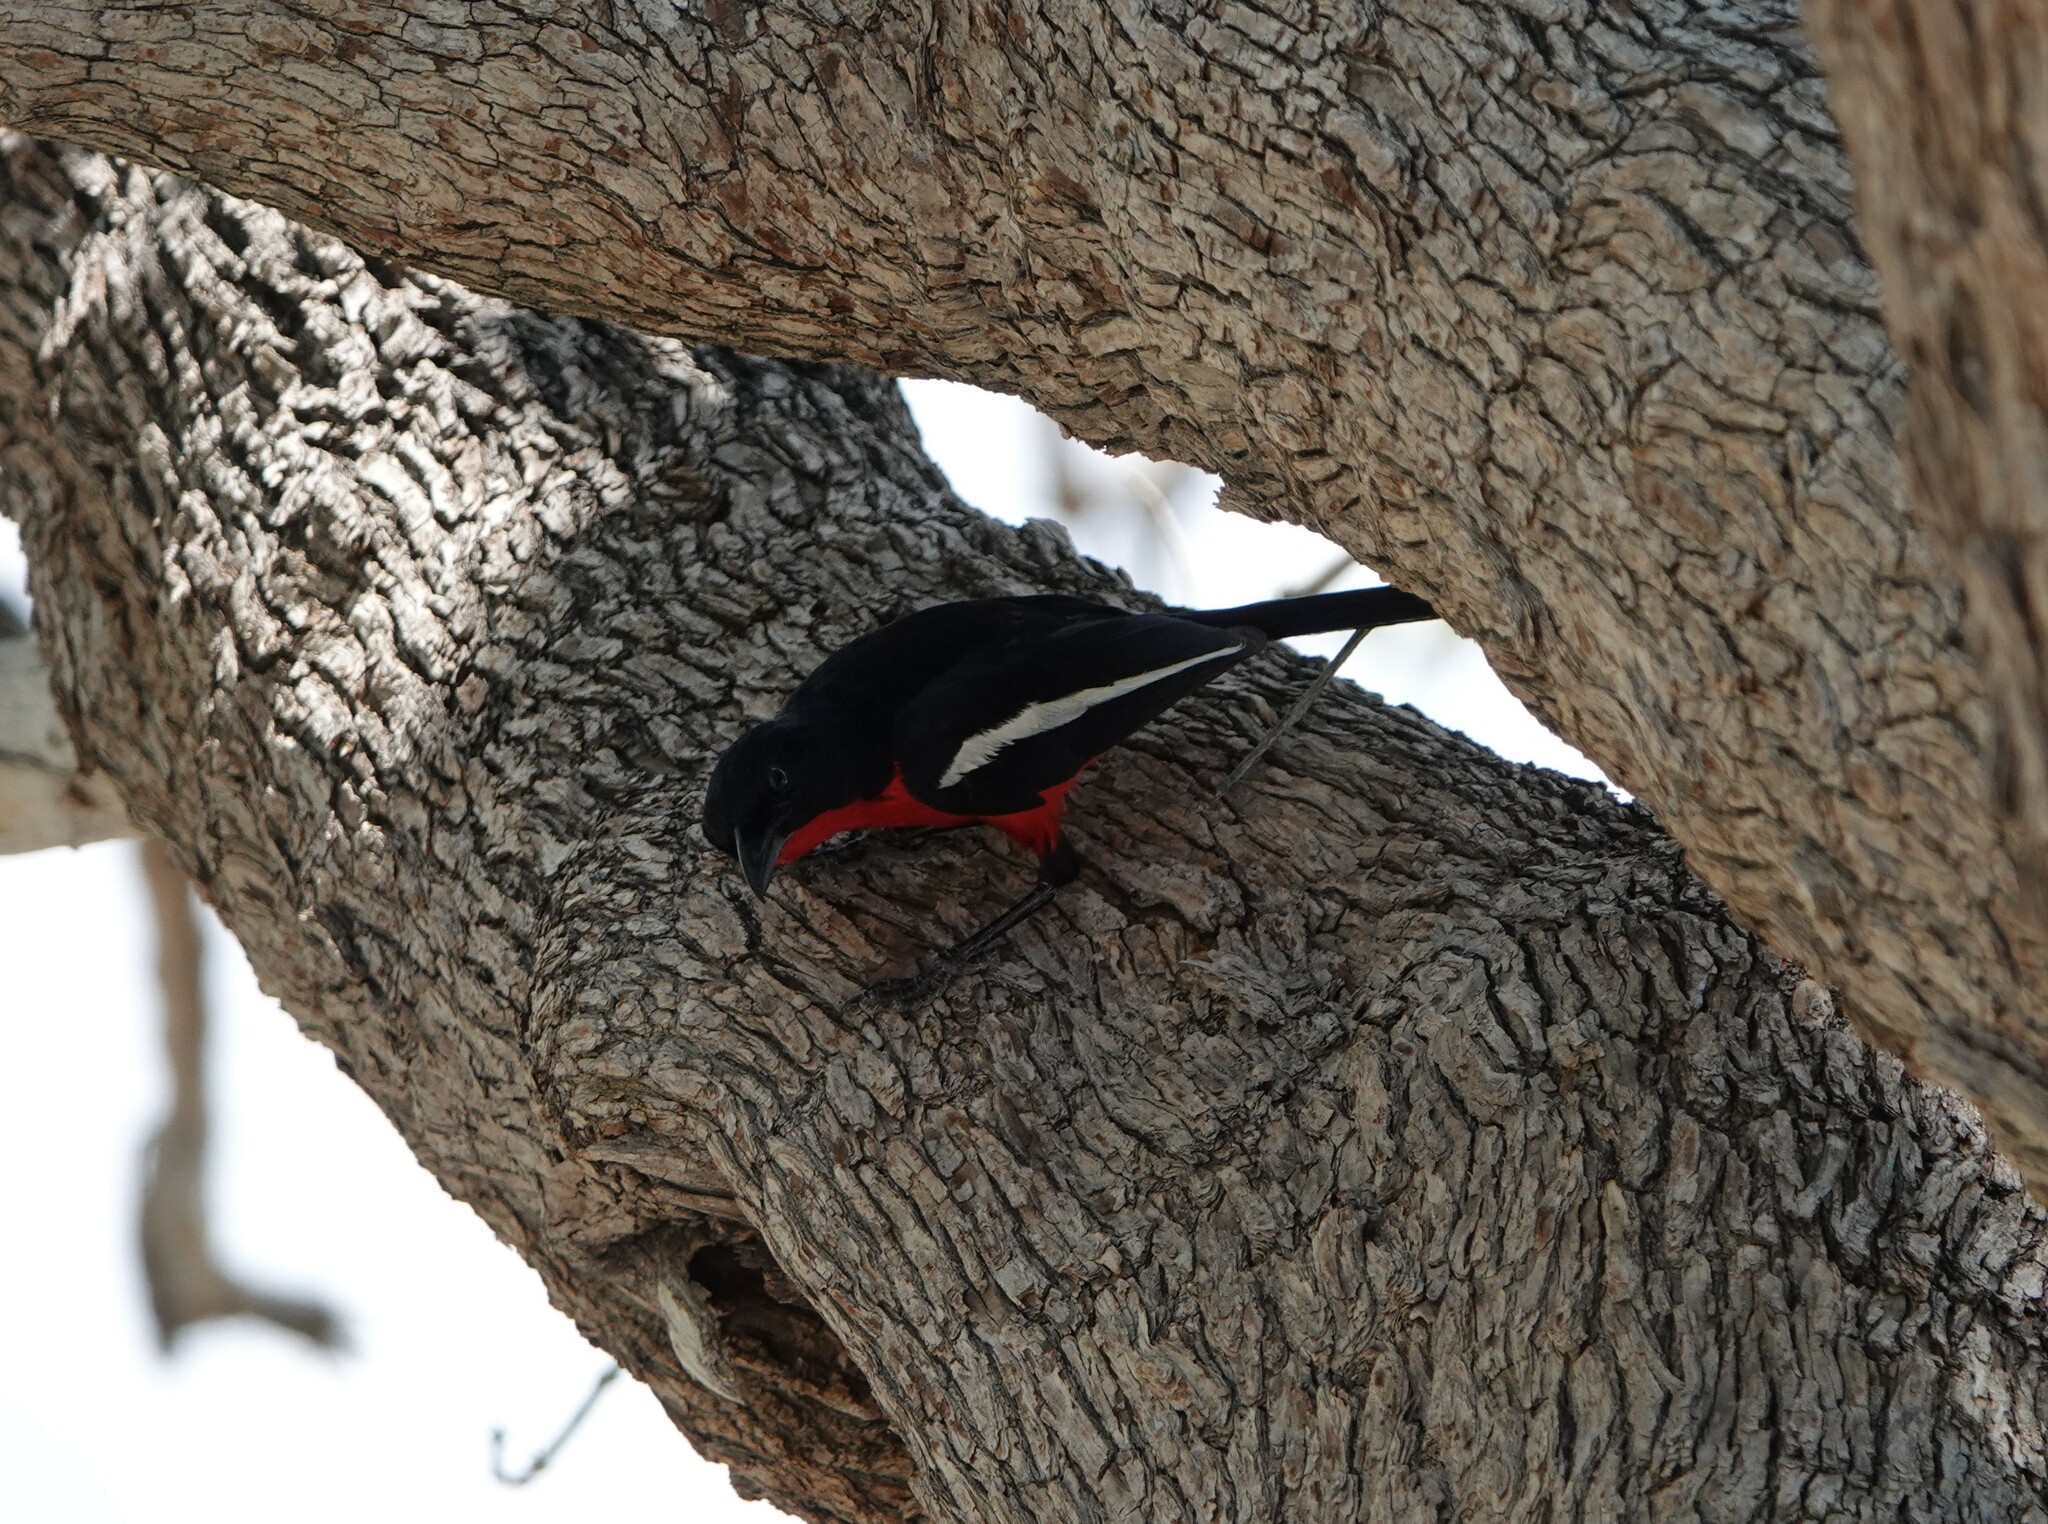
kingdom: Animalia
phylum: Chordata
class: Aves
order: Passeriformes
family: Malaconotidae
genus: Laniarius
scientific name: Laniarius atrococcineus
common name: Crimson-breasted shrike
